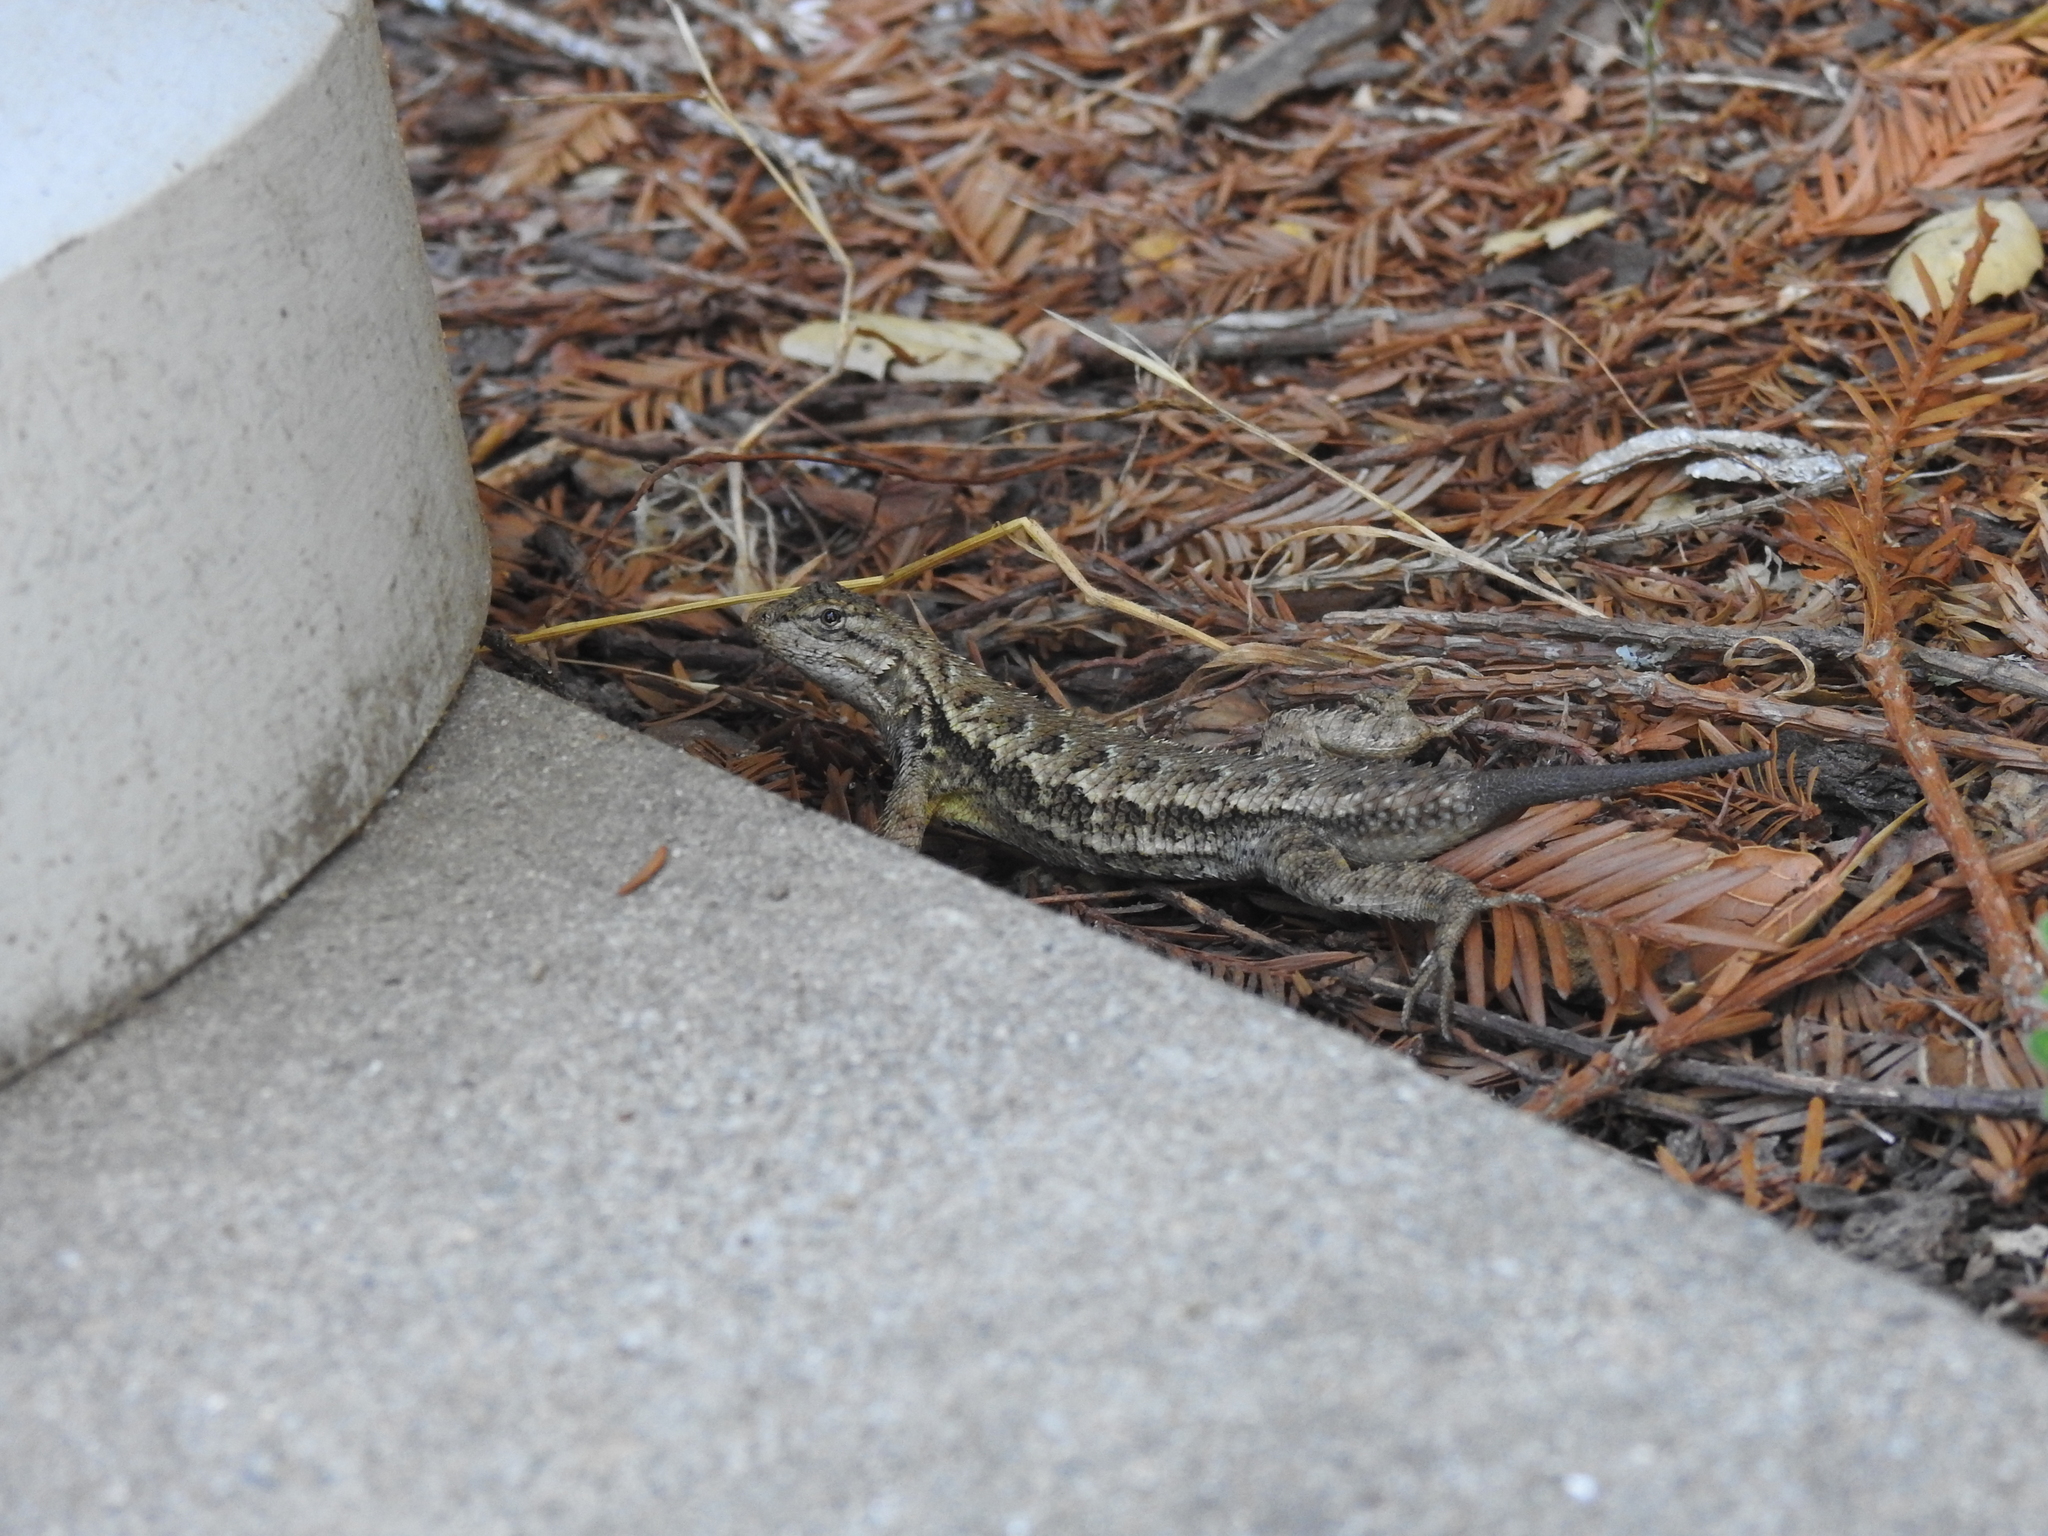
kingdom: Animalia
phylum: Chordata
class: Squamata
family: Phrynosomatidae
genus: Sceloporus
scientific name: Sceloporus occidentalis
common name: Western fence lizard
